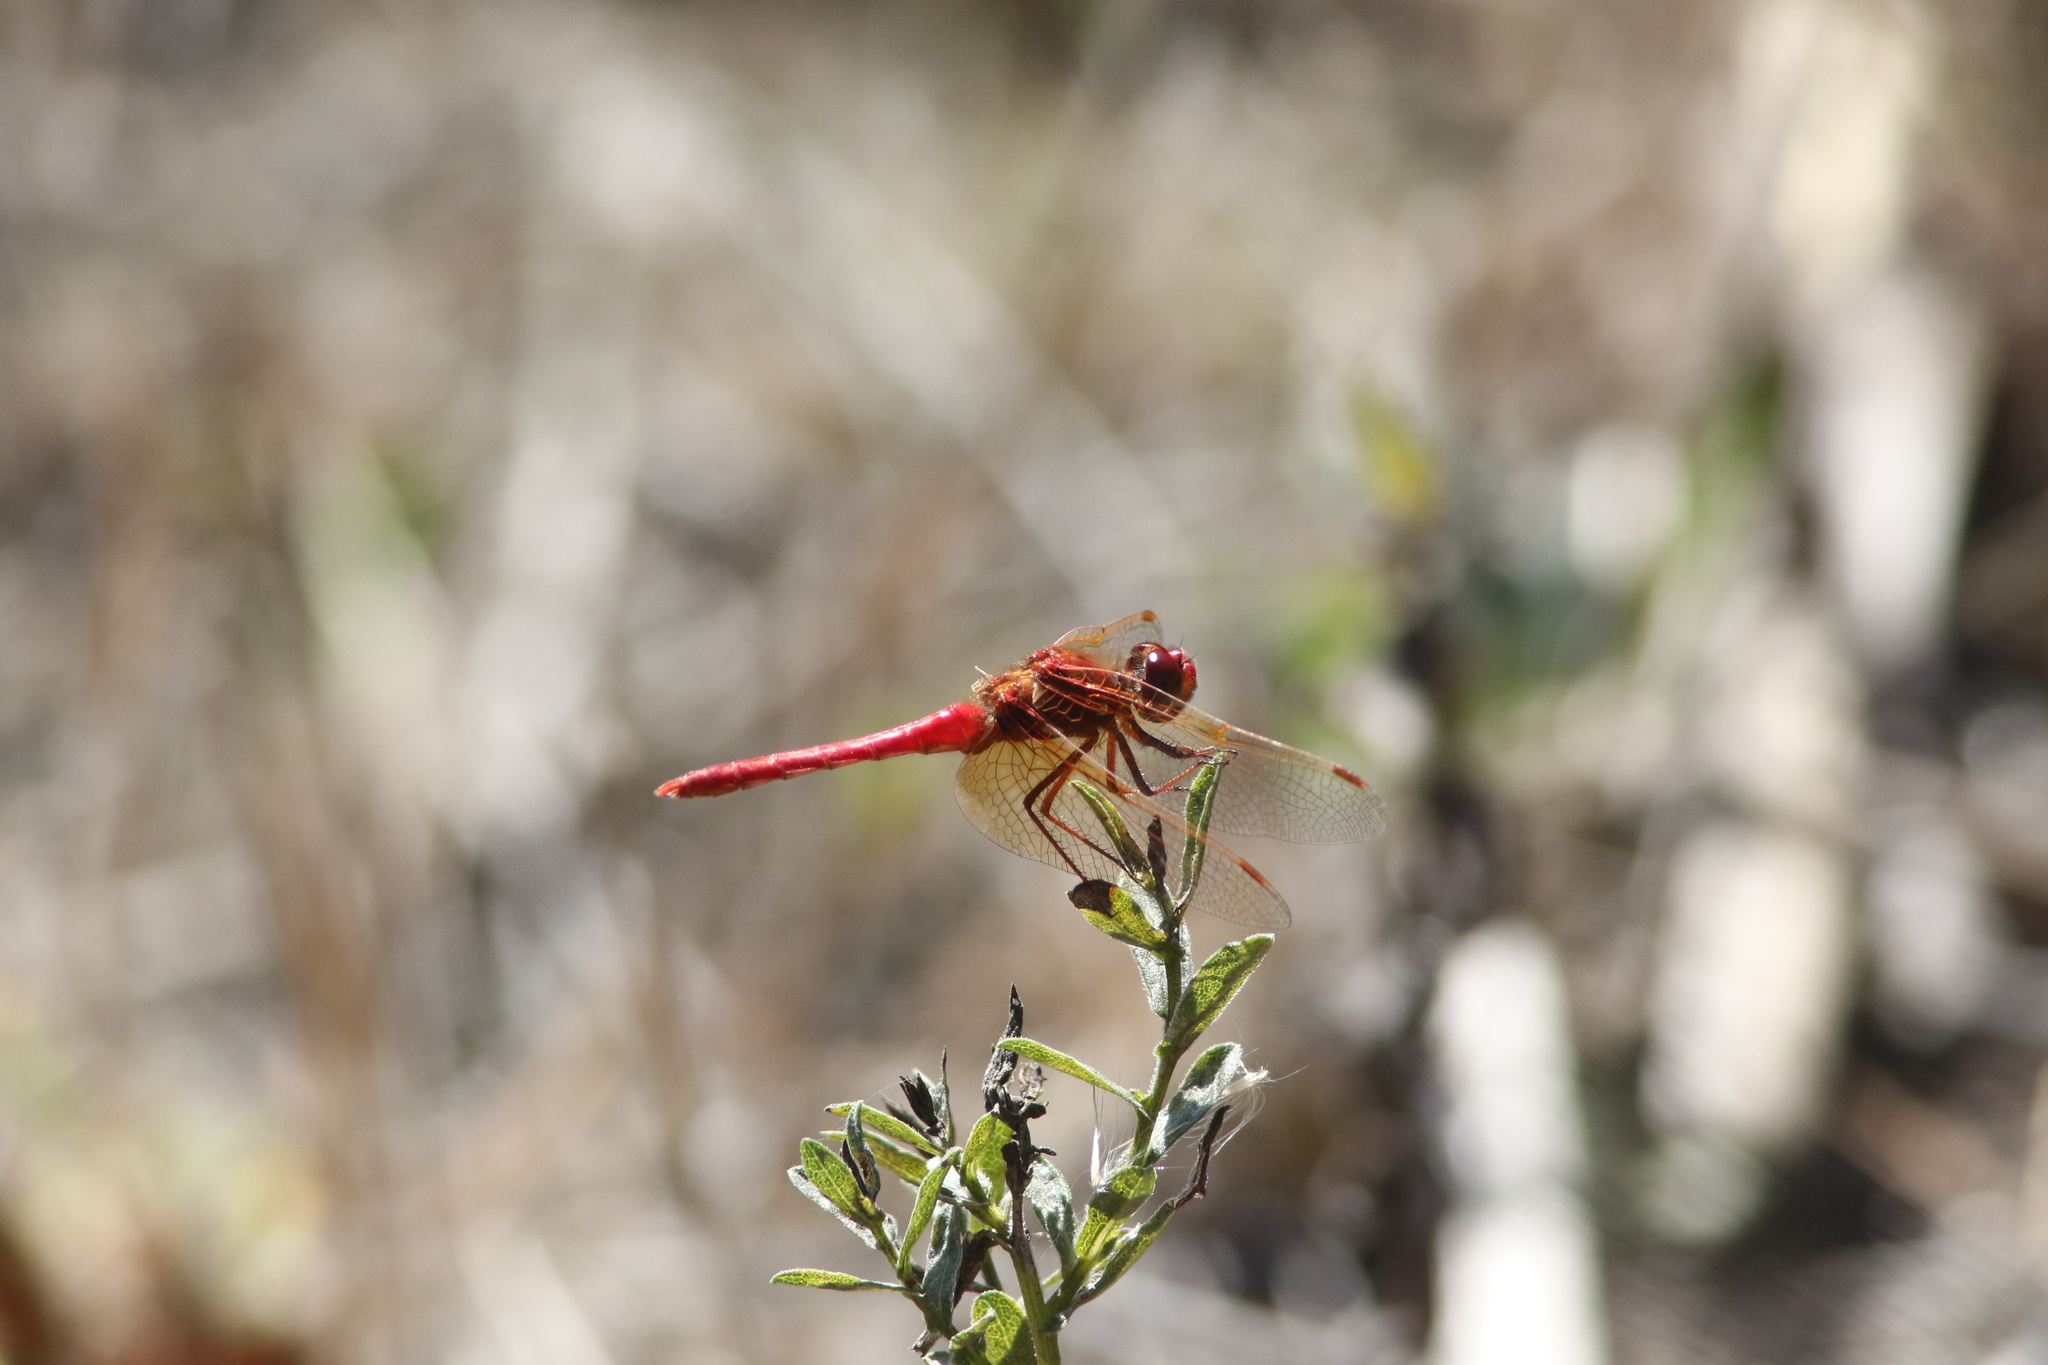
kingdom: Animalia
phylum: Arthropoda
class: Insecta
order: Odonata
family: Libellulidae
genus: Sympetrum
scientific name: Sympetrum illotum
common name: Cardinal meadowhawk
